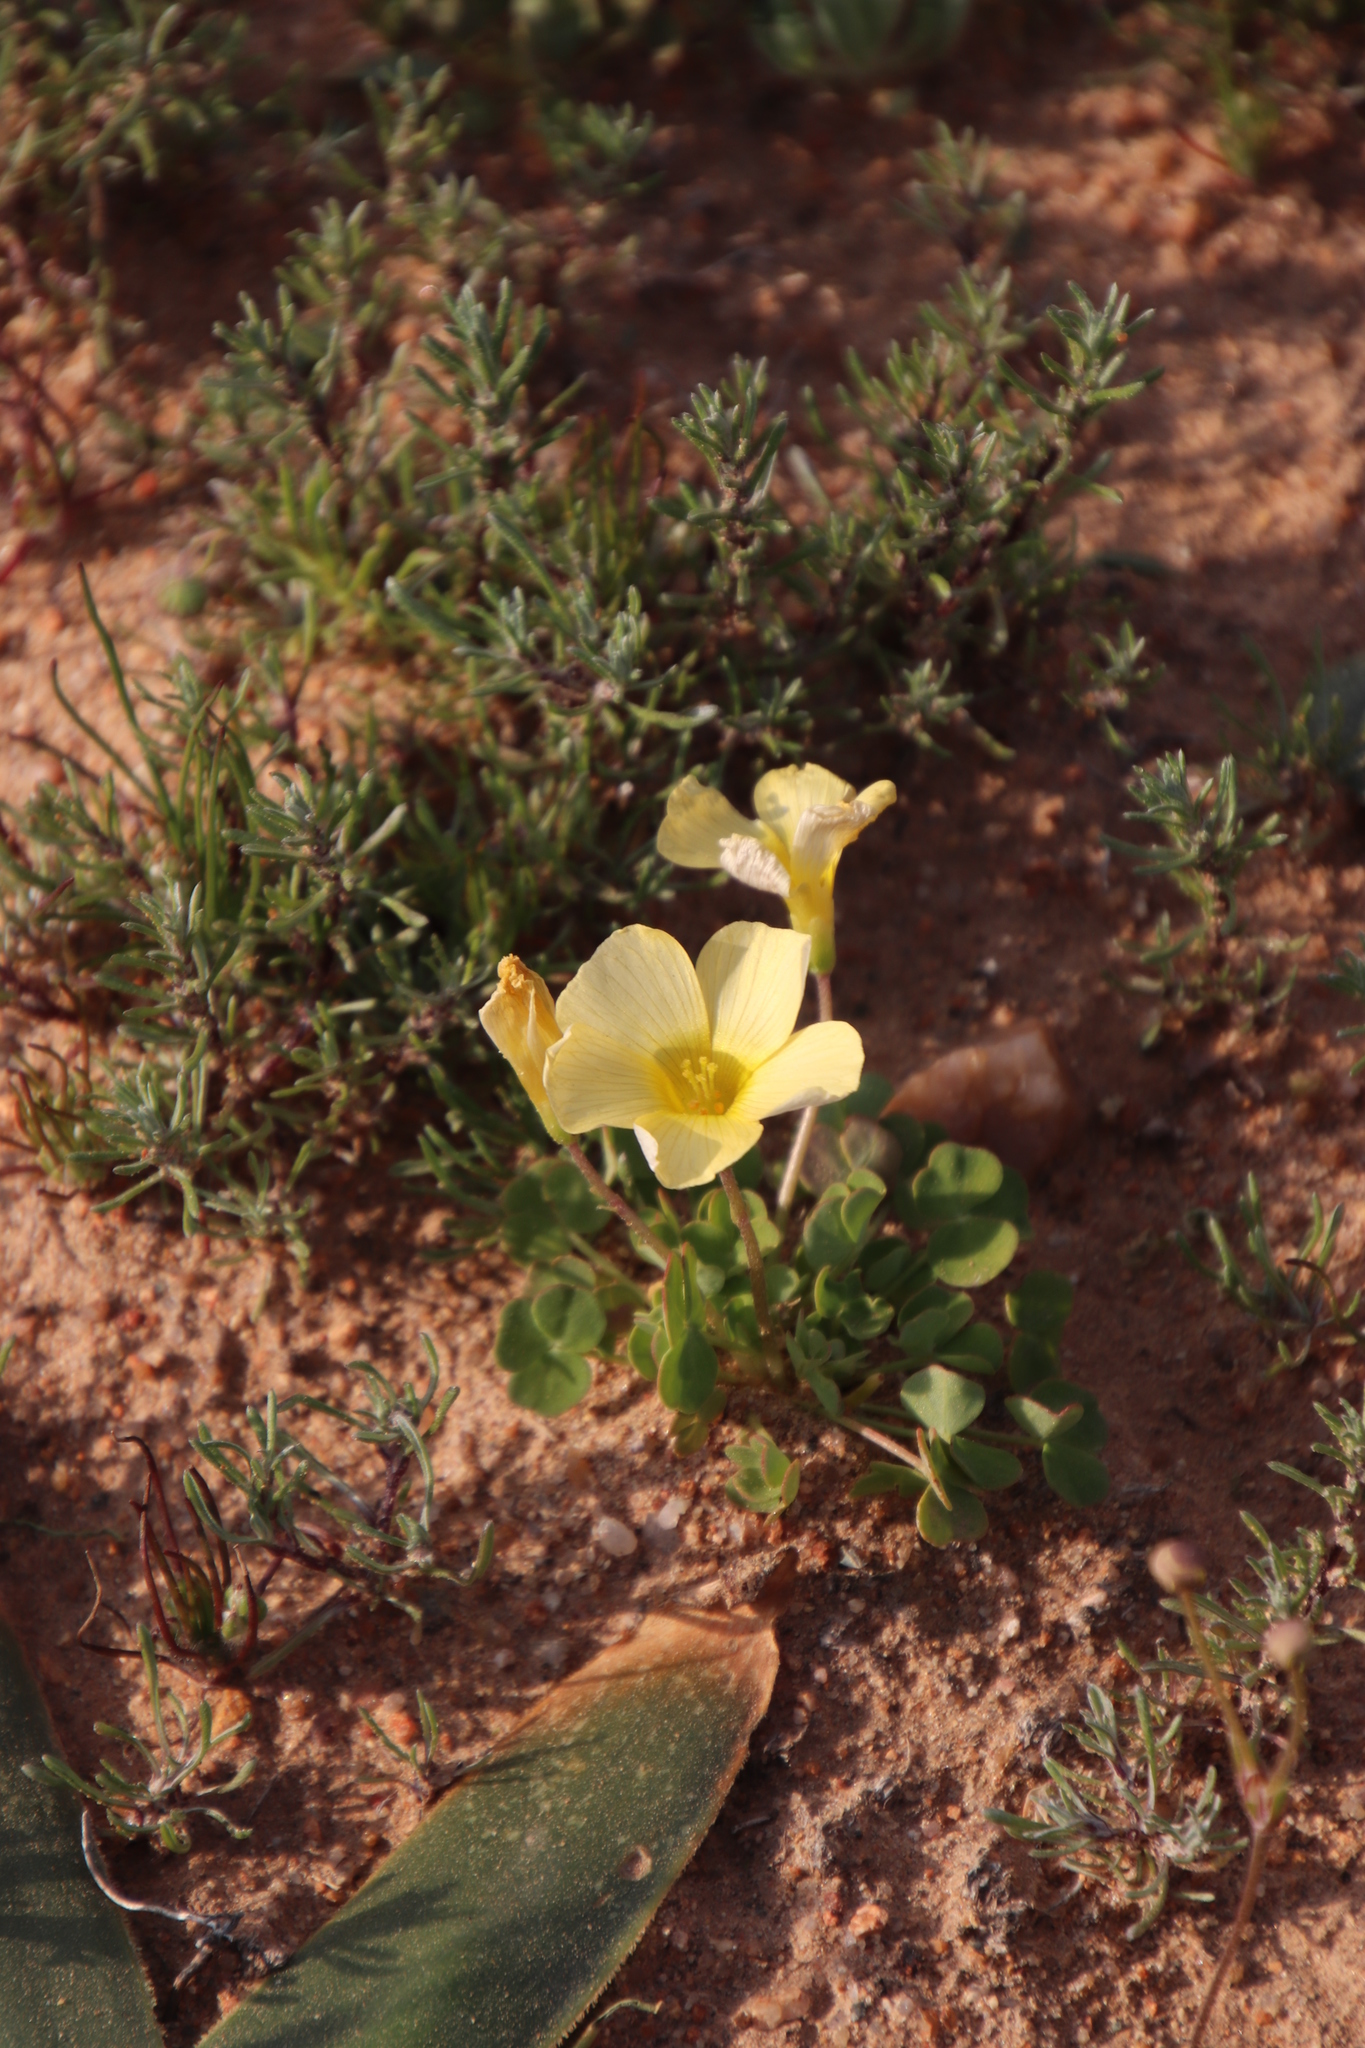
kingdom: Plantae
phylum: Tracheophyta
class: Magnoliopsida
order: Oxalidales
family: Oxalidaceae
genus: Oxalis
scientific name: Oxalis obtusa
